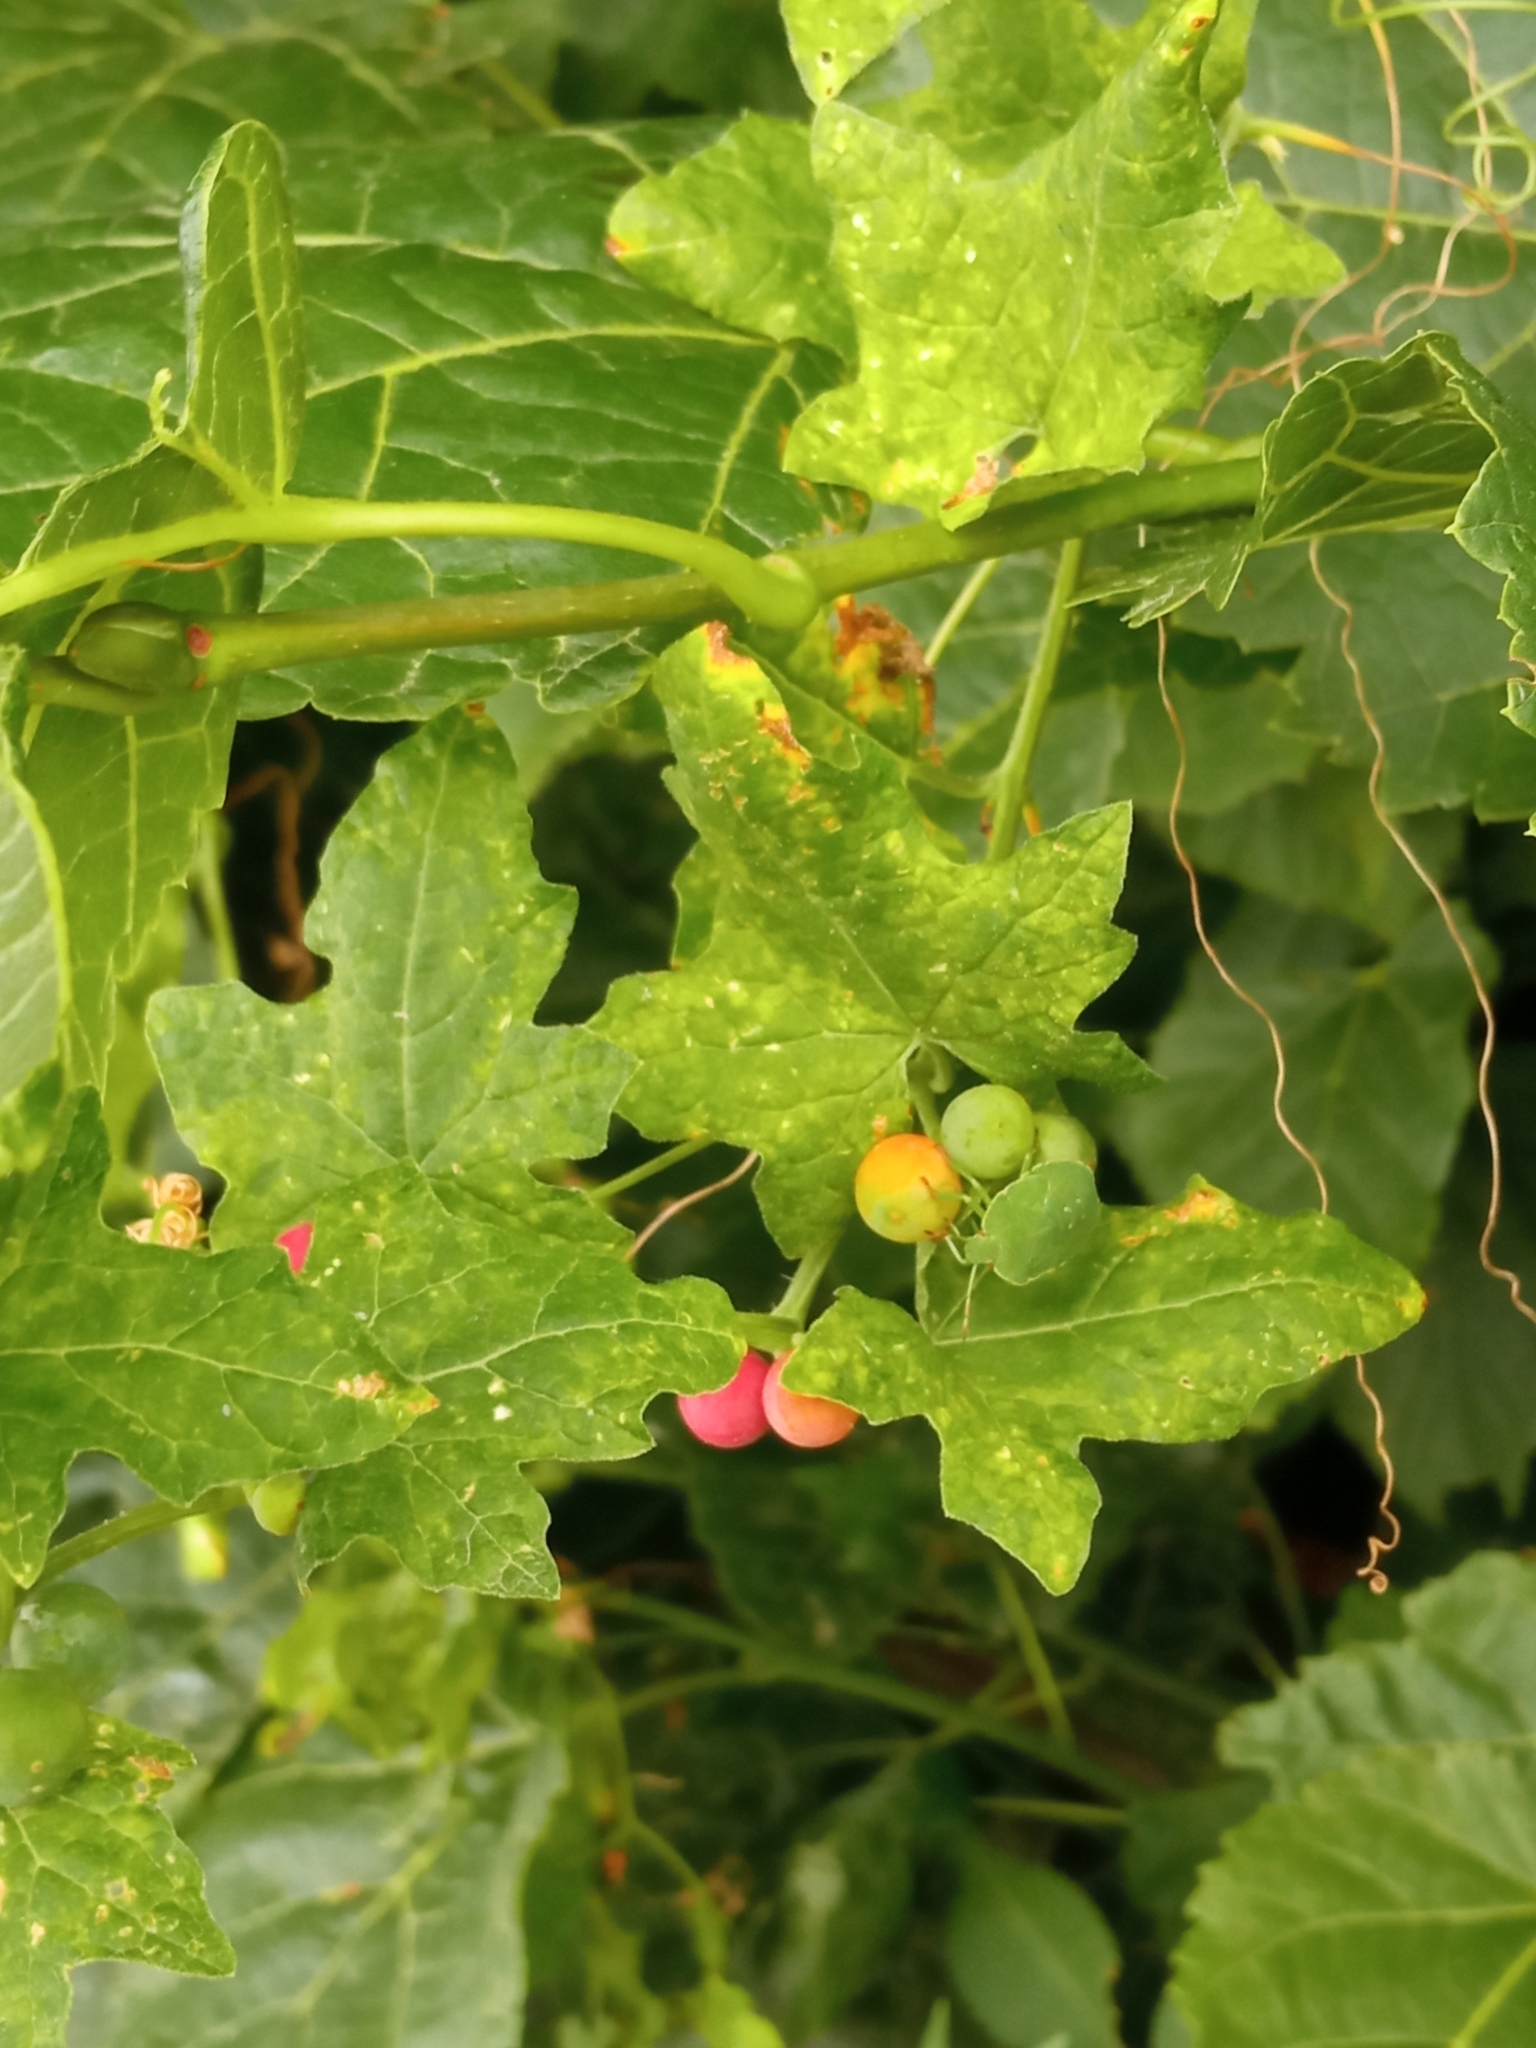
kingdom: Plantae
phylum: Tracheophyta
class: Magnoliopsida
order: Cucurbitales
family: Cucurbitaceae
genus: Bryonia
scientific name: Bryonia cretica
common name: Cretan bryony
